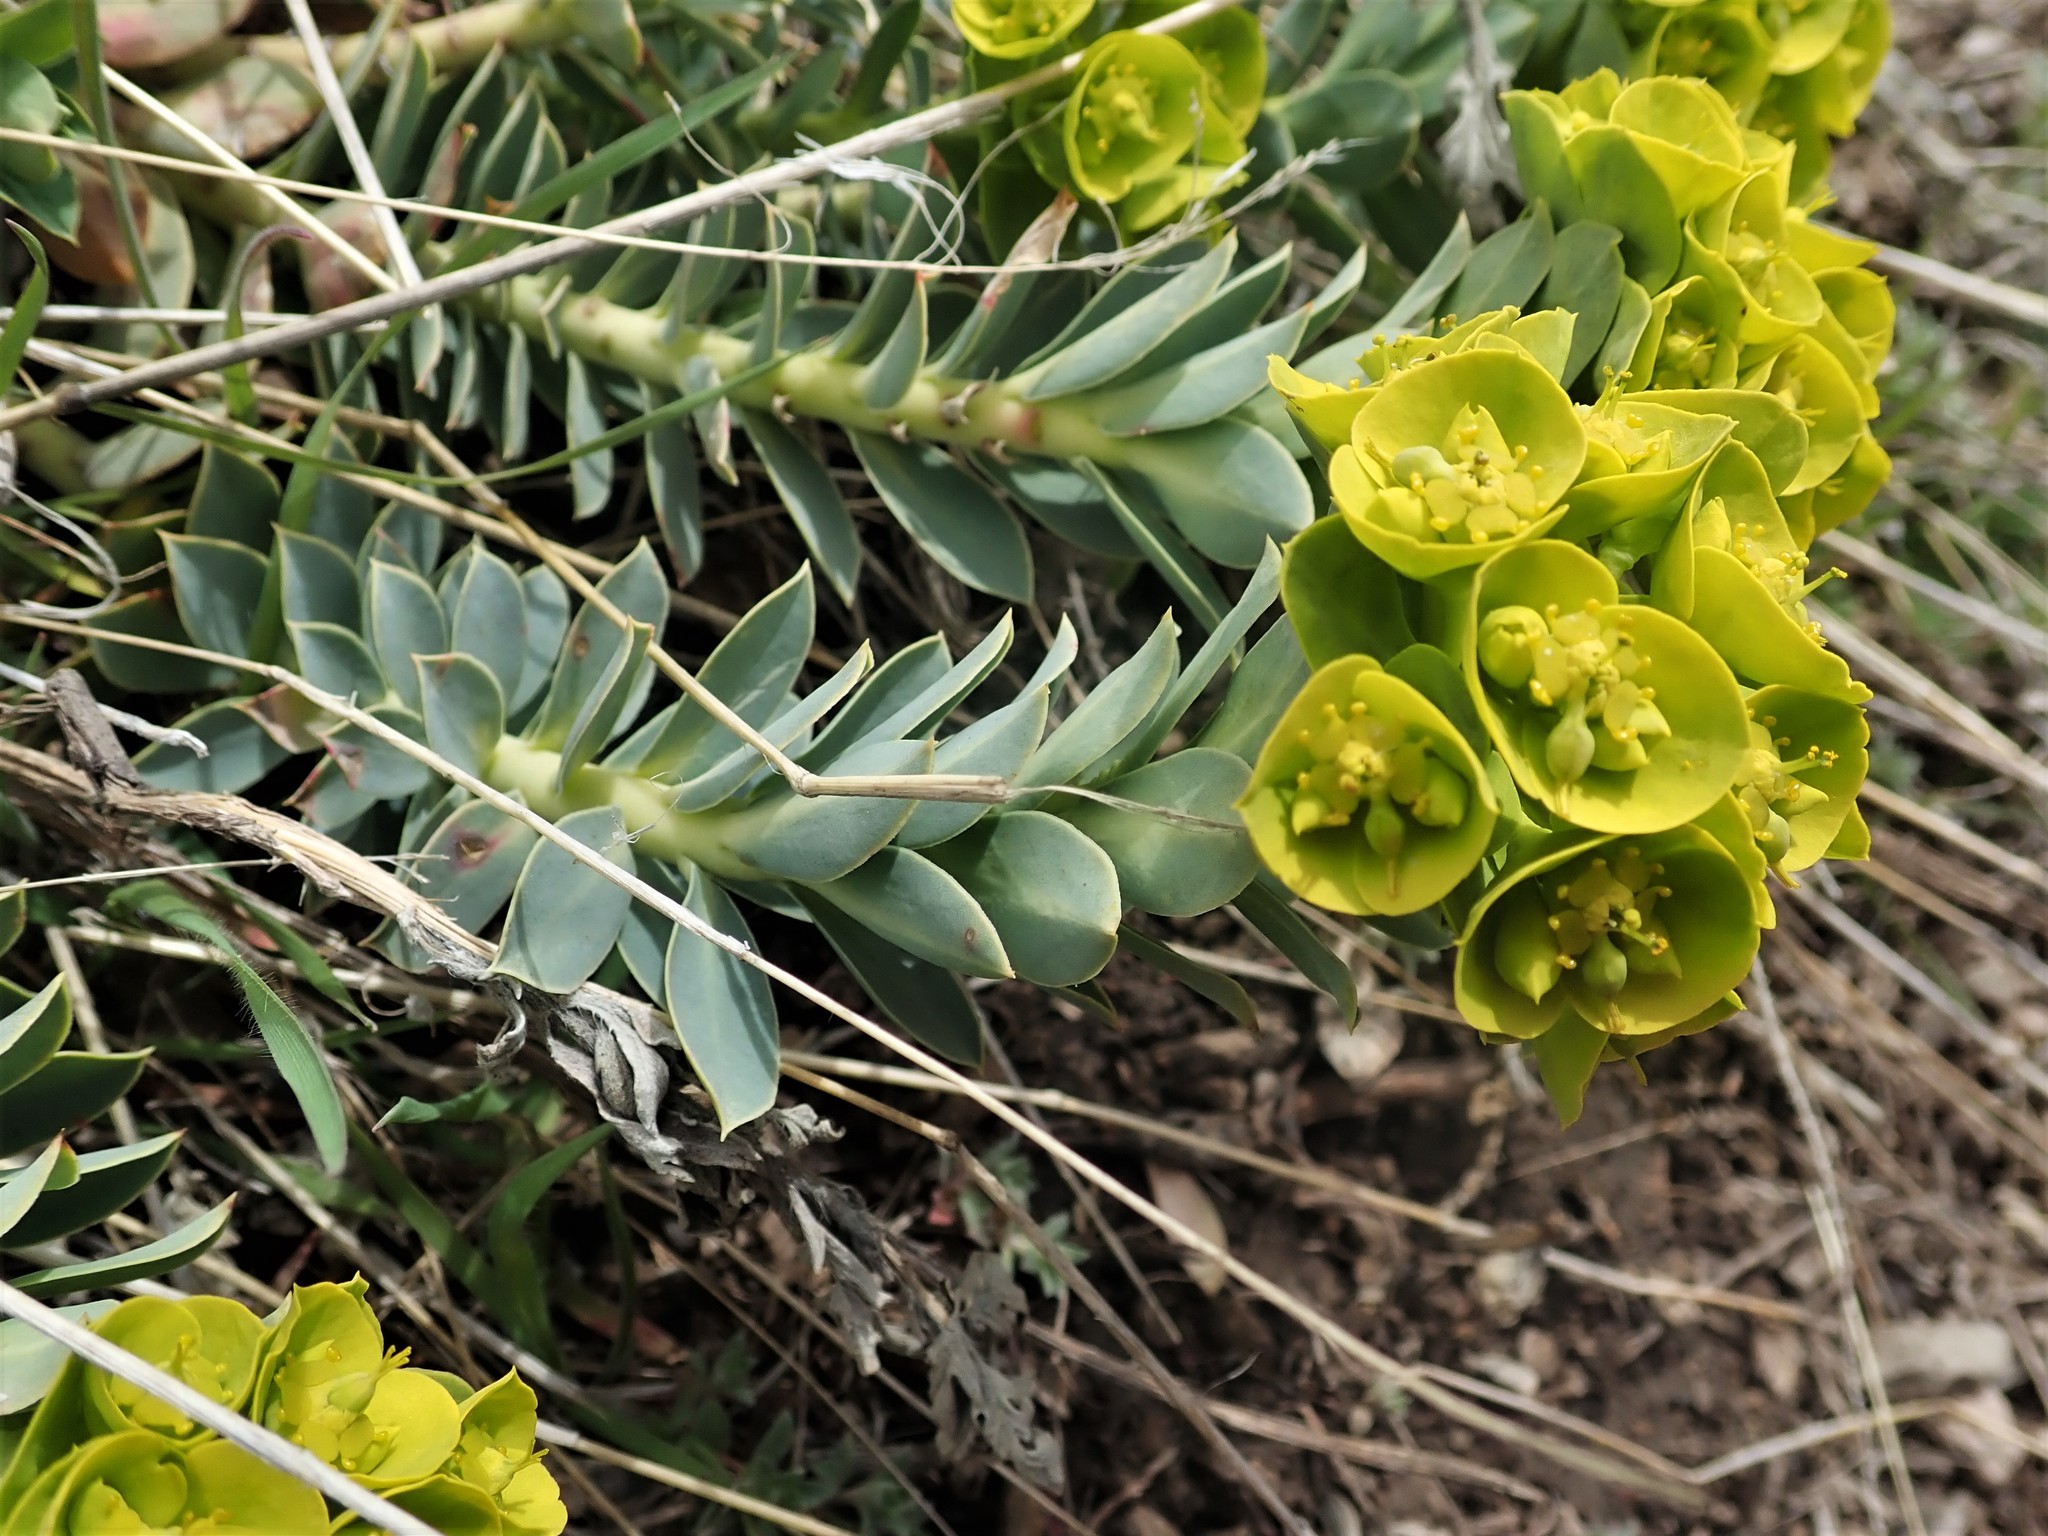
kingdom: Plantae
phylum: Tracheophyta
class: Magnoliopsida
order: Malpighiales
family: Euphorbiaceae
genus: Euphorbia
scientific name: Euphorbia myrsinites
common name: Myrtle spurge
